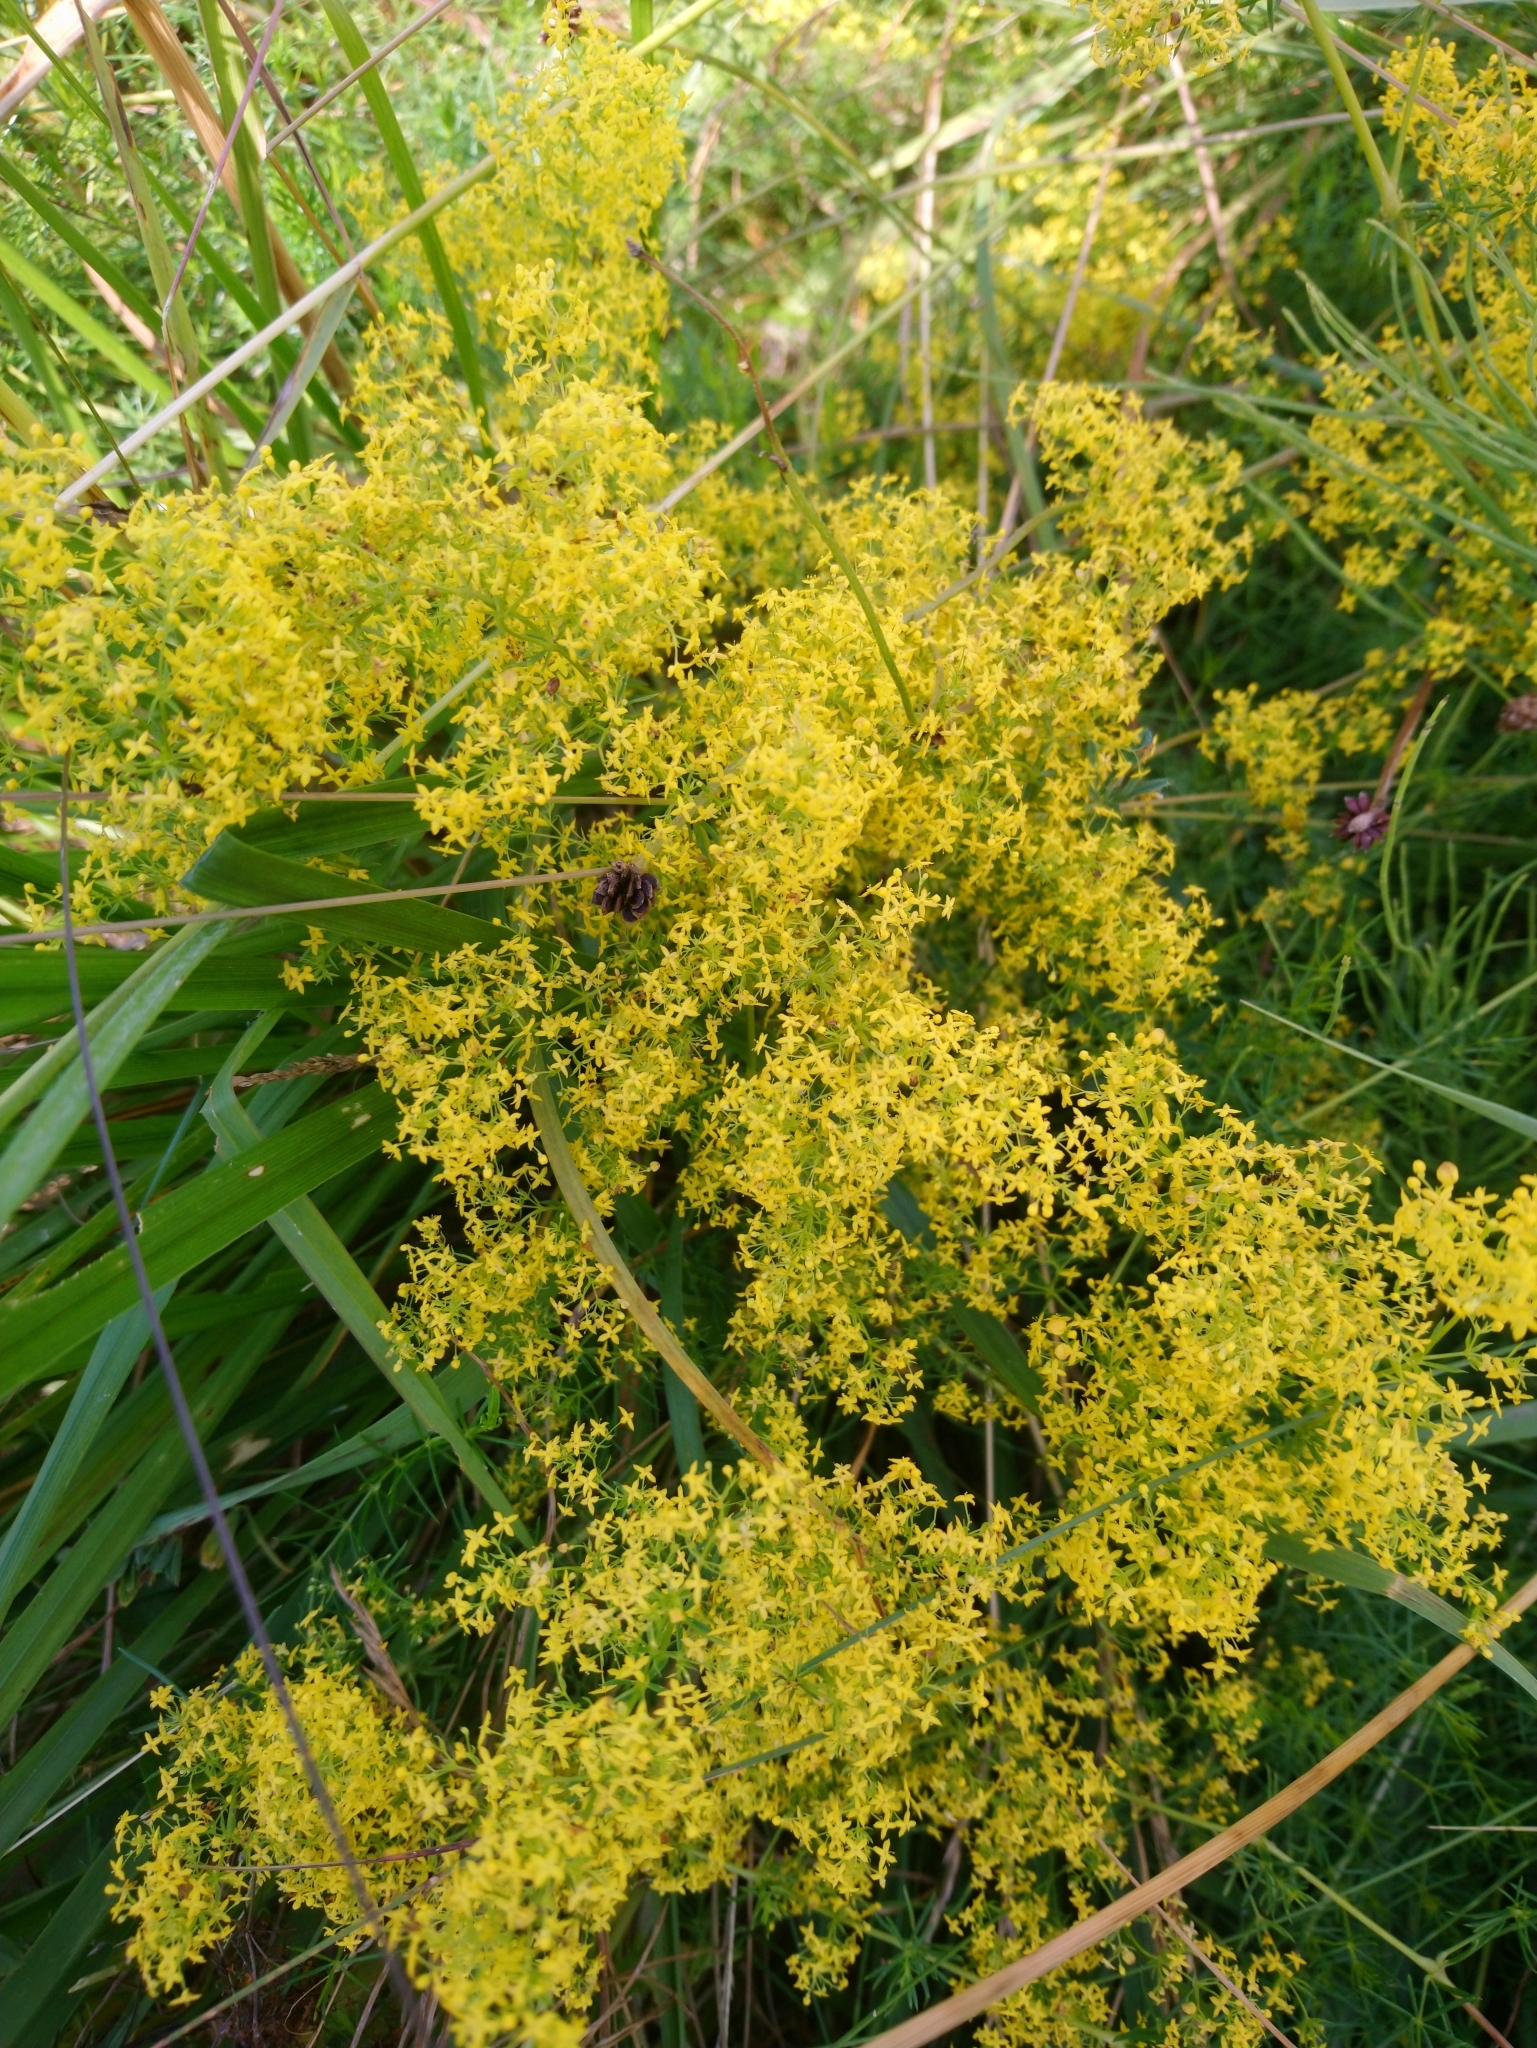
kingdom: Plantae
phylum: Tracheophyta
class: Magnoliopsida
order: Gentianales
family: Rubiaceae
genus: Galium
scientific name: Galium verum
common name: Lady's bedstraw
